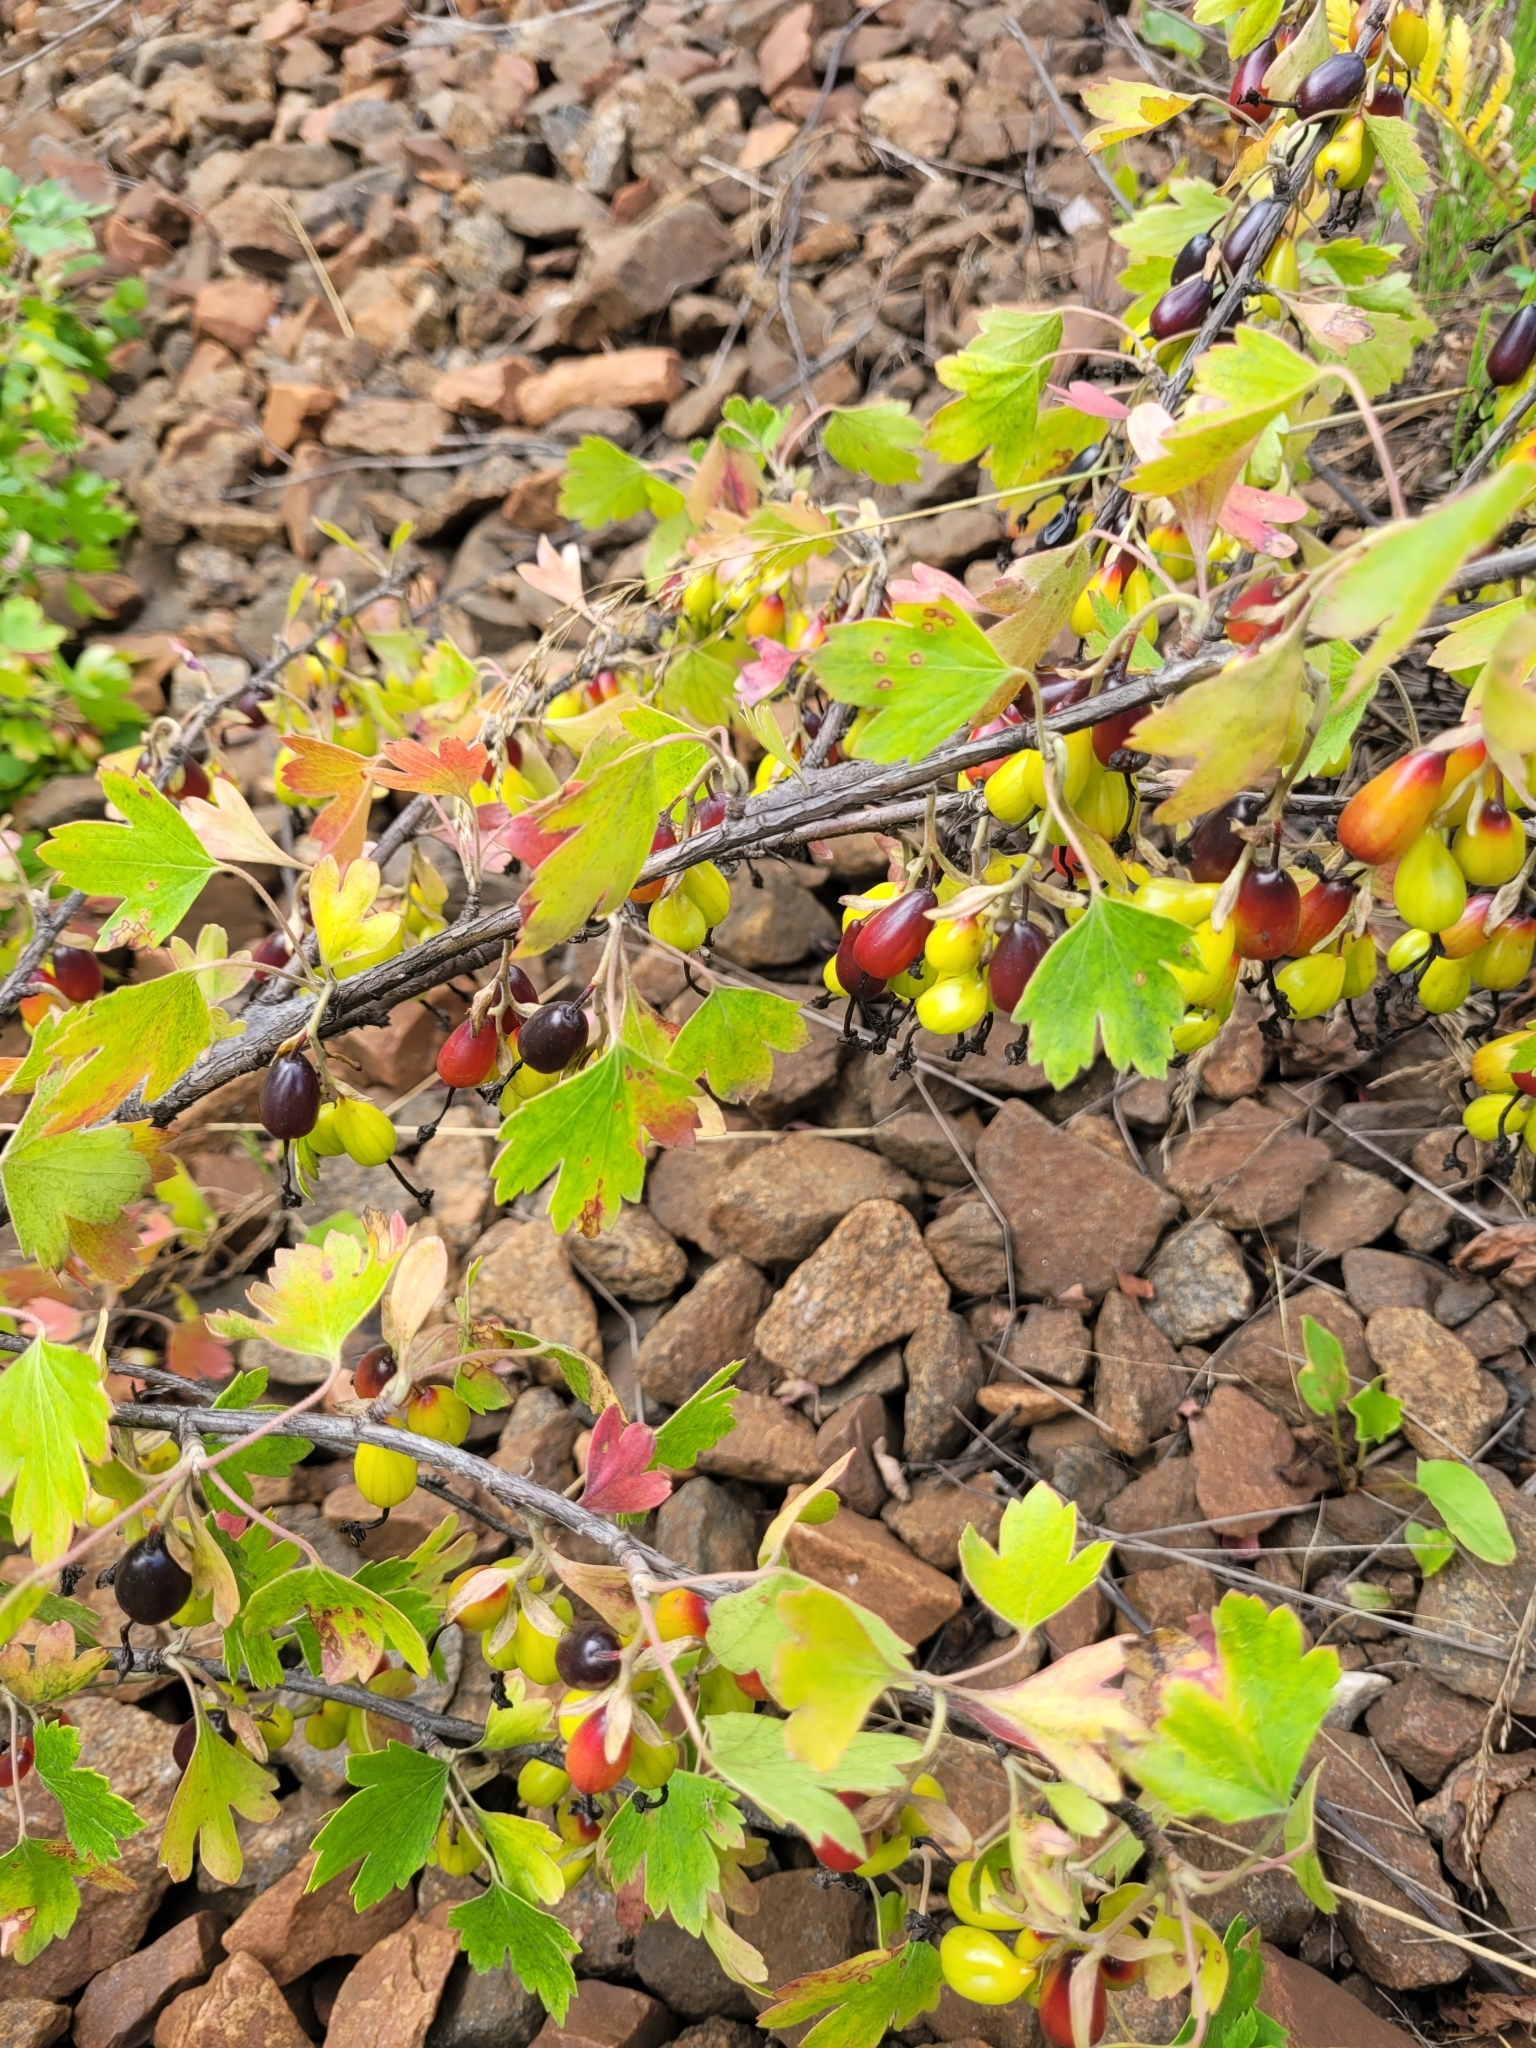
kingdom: Plantae
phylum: Tracheophyta
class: Magnoliopsida
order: Saxifragales
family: Grossulariaceae
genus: Ribes
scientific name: Ribes aureum
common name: Golden currant
